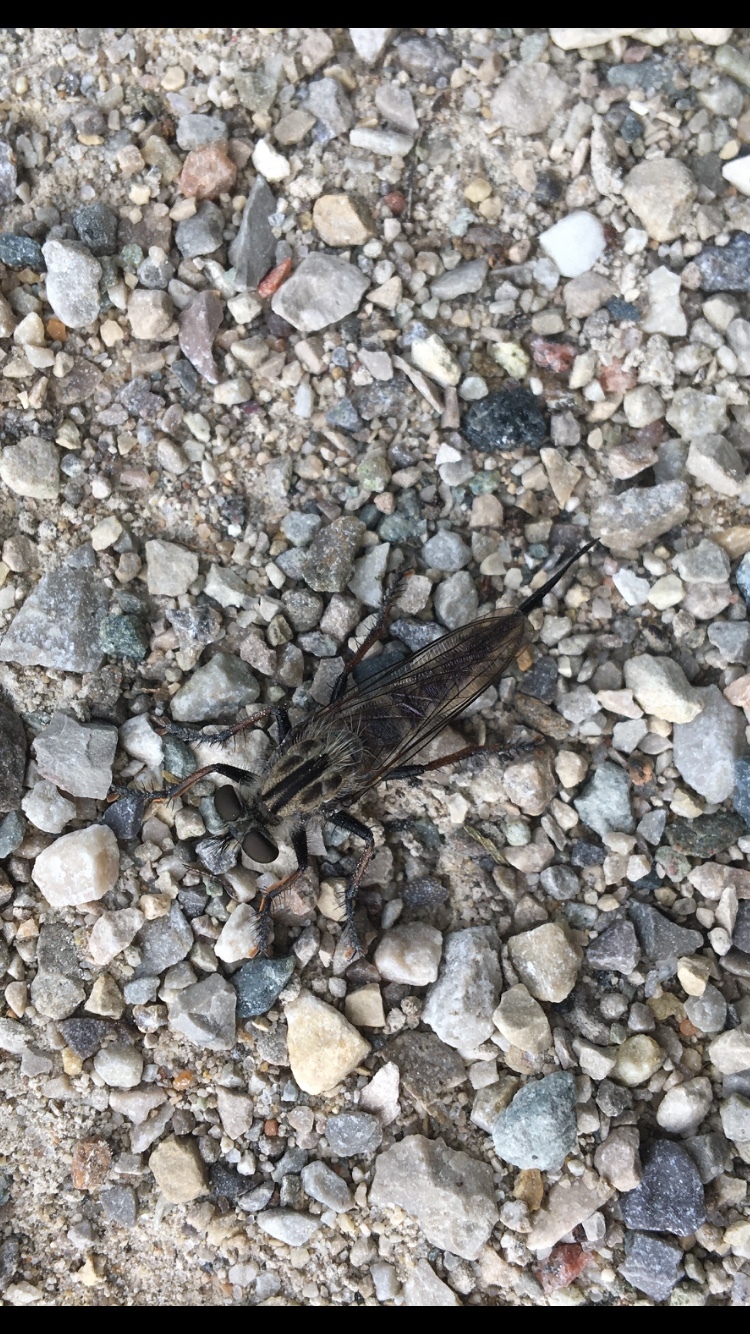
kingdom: Animalia
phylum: Arthropoda
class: Insecta
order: Diptera
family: Asilidae
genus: Efferia
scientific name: Efferia aestuans
